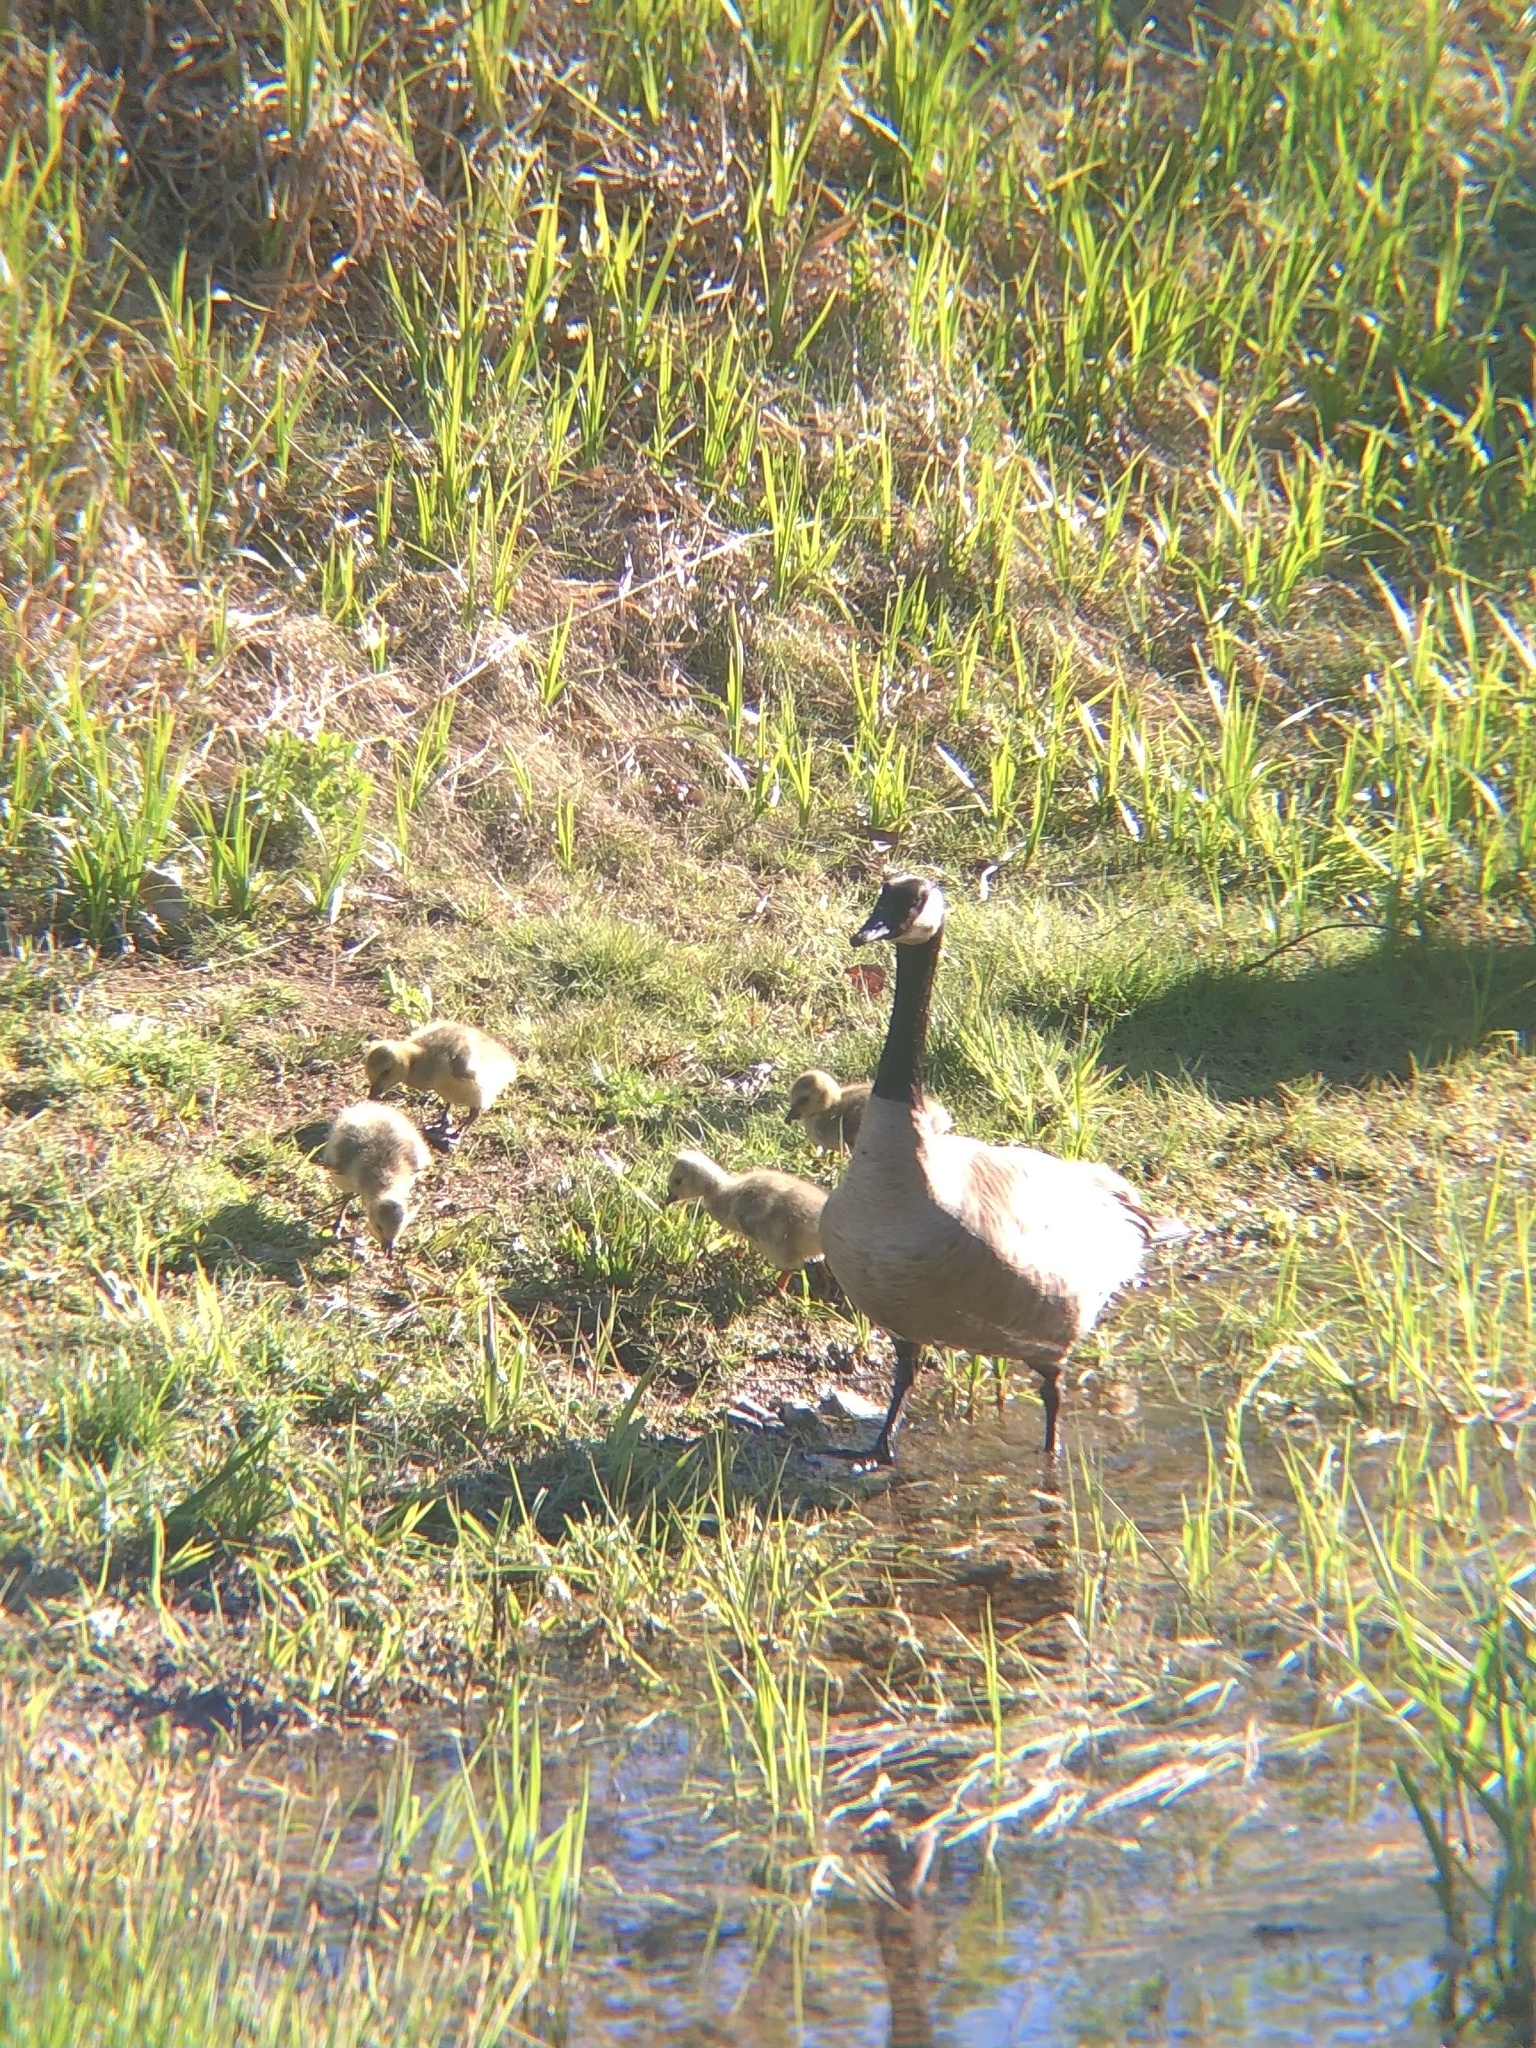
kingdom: Animalia
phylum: Chordata
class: Aves
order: Anseriformes
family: Anatidae
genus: Branta
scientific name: Branta canadensis
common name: Canada goose
